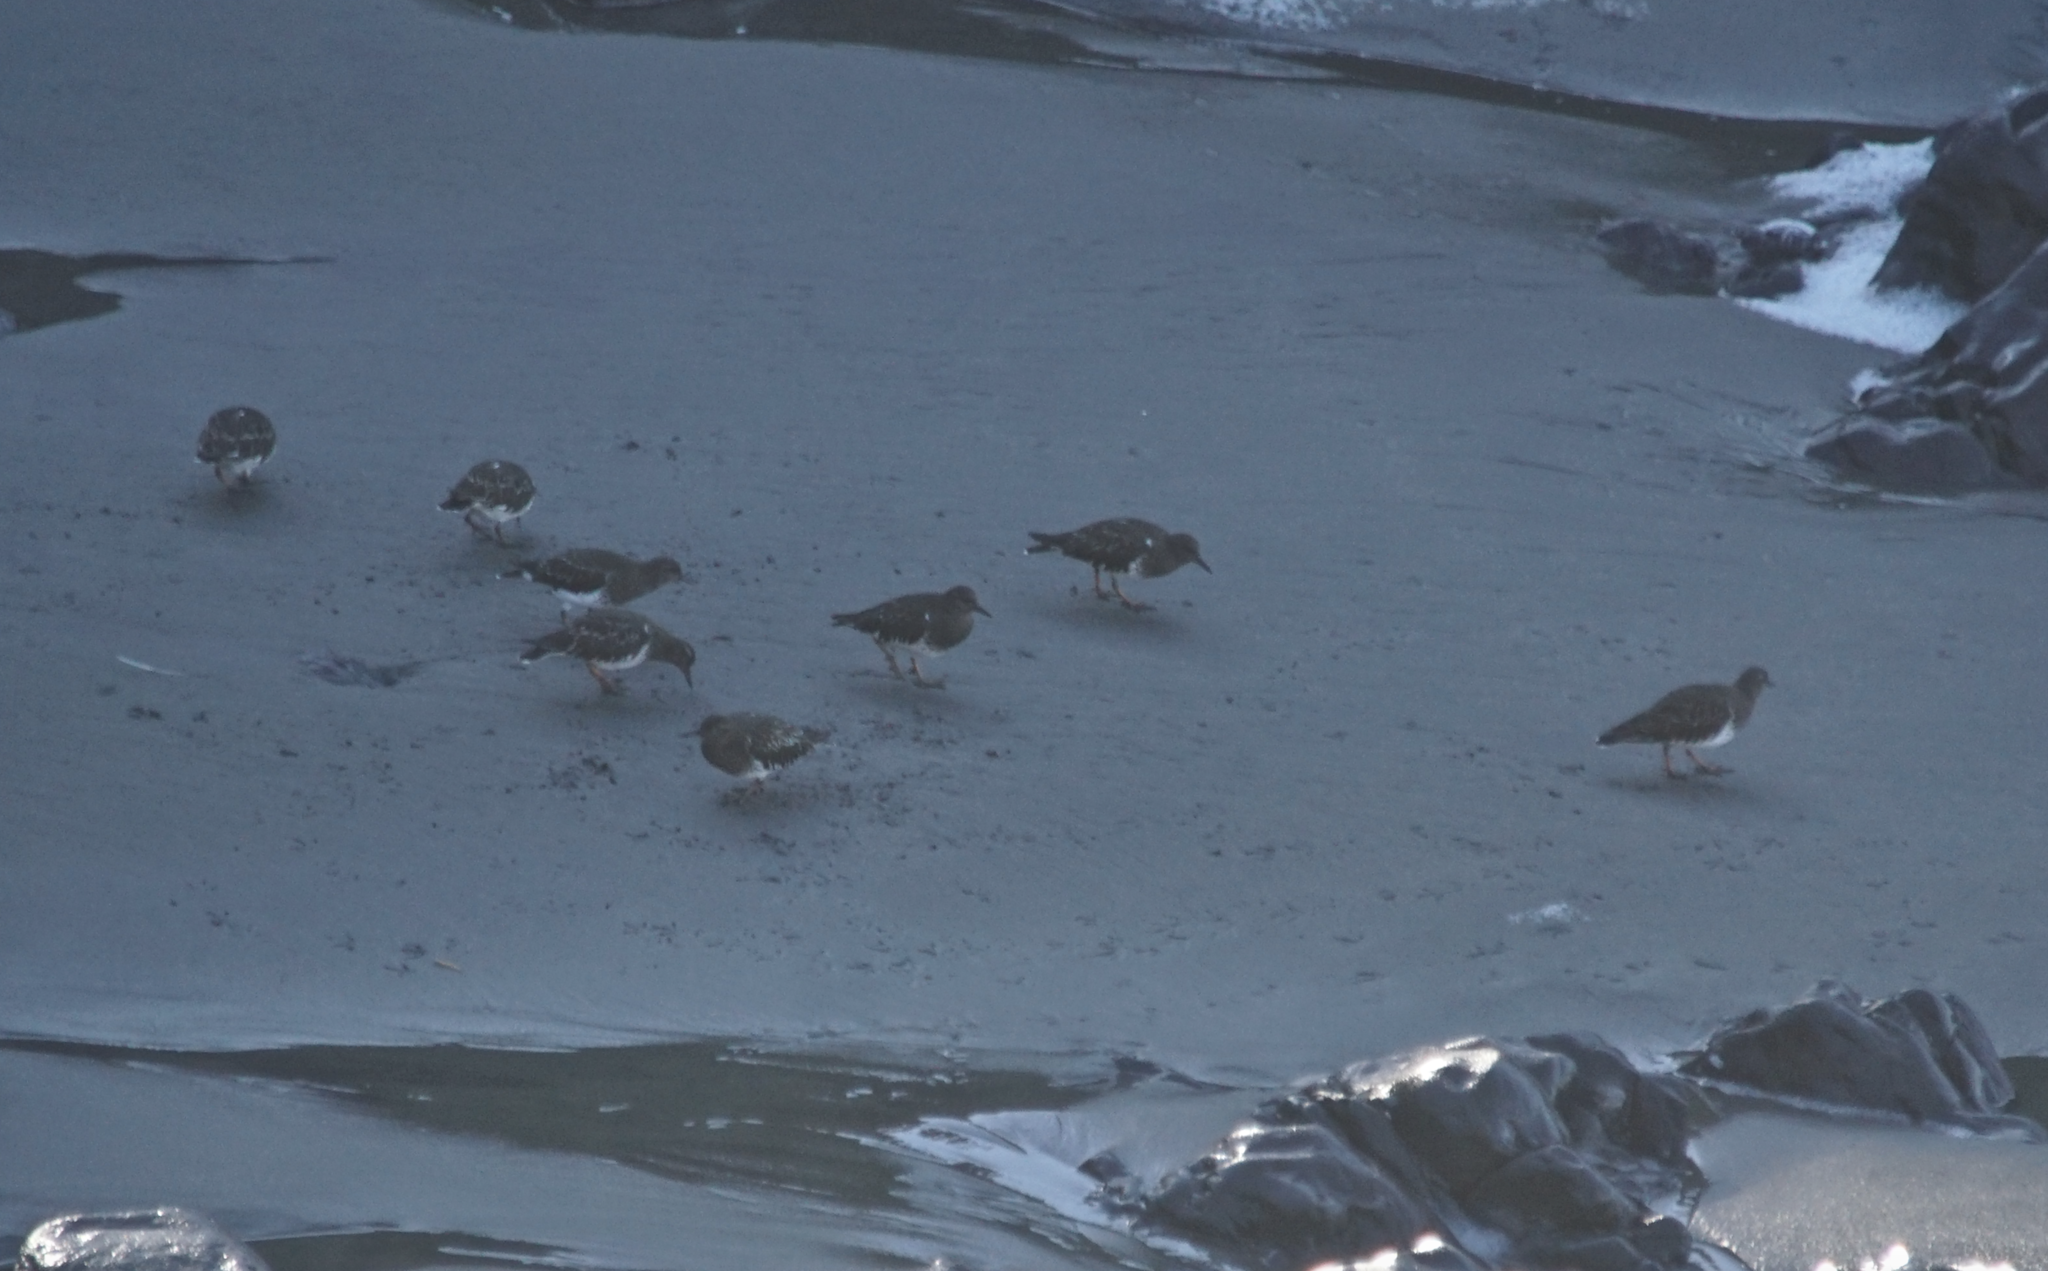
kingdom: Animalia
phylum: Chordata
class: Aves
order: Charadriiformes
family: Scolopacidae
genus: Arenaria
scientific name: Arenaria melanocephala
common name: Black turnstone
